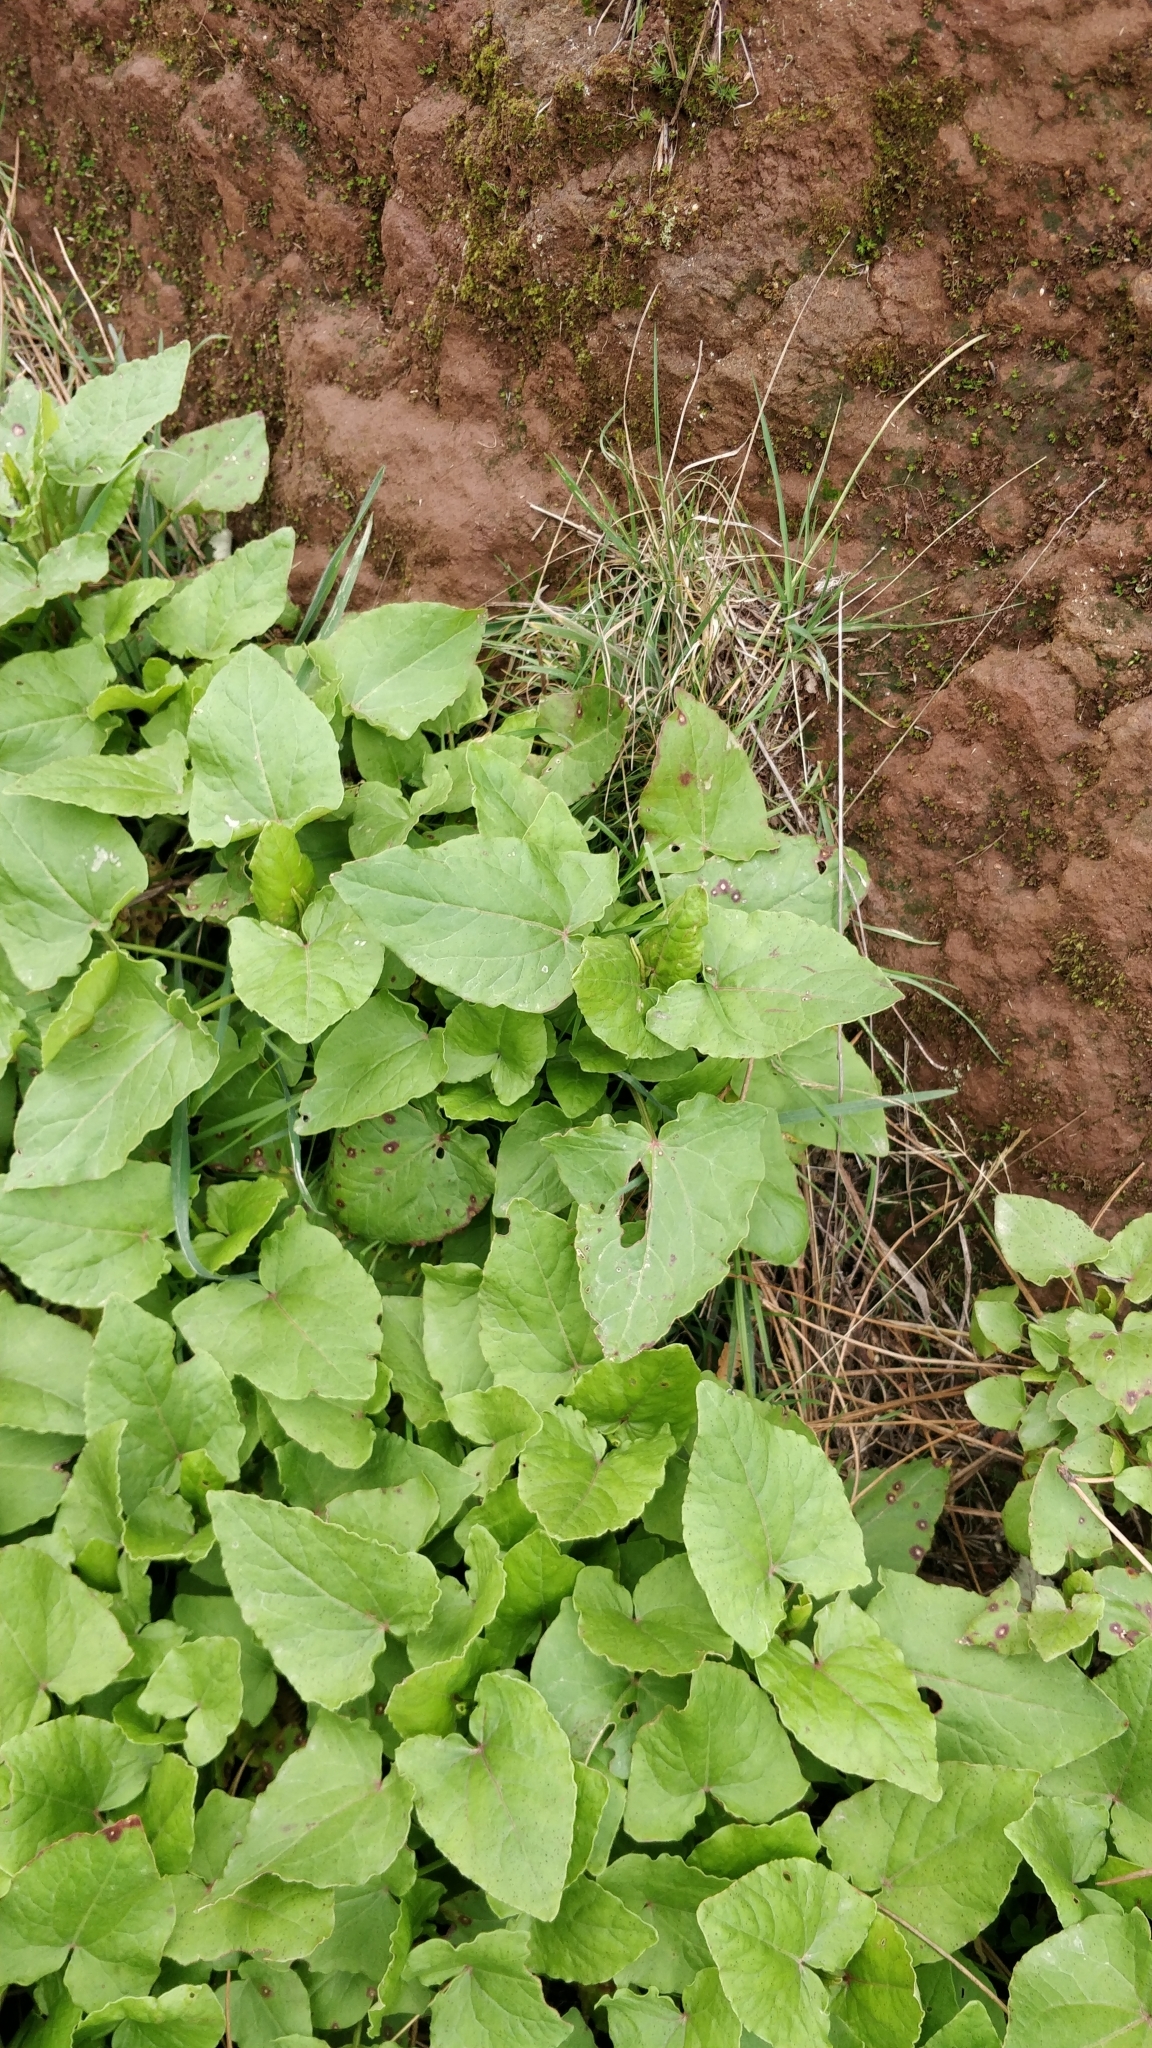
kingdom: Plantae
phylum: Tracheophyta
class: Magnoliopsida
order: Caryophyllales
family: Polygonaceae
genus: Rumex
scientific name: Rumex maderensis
